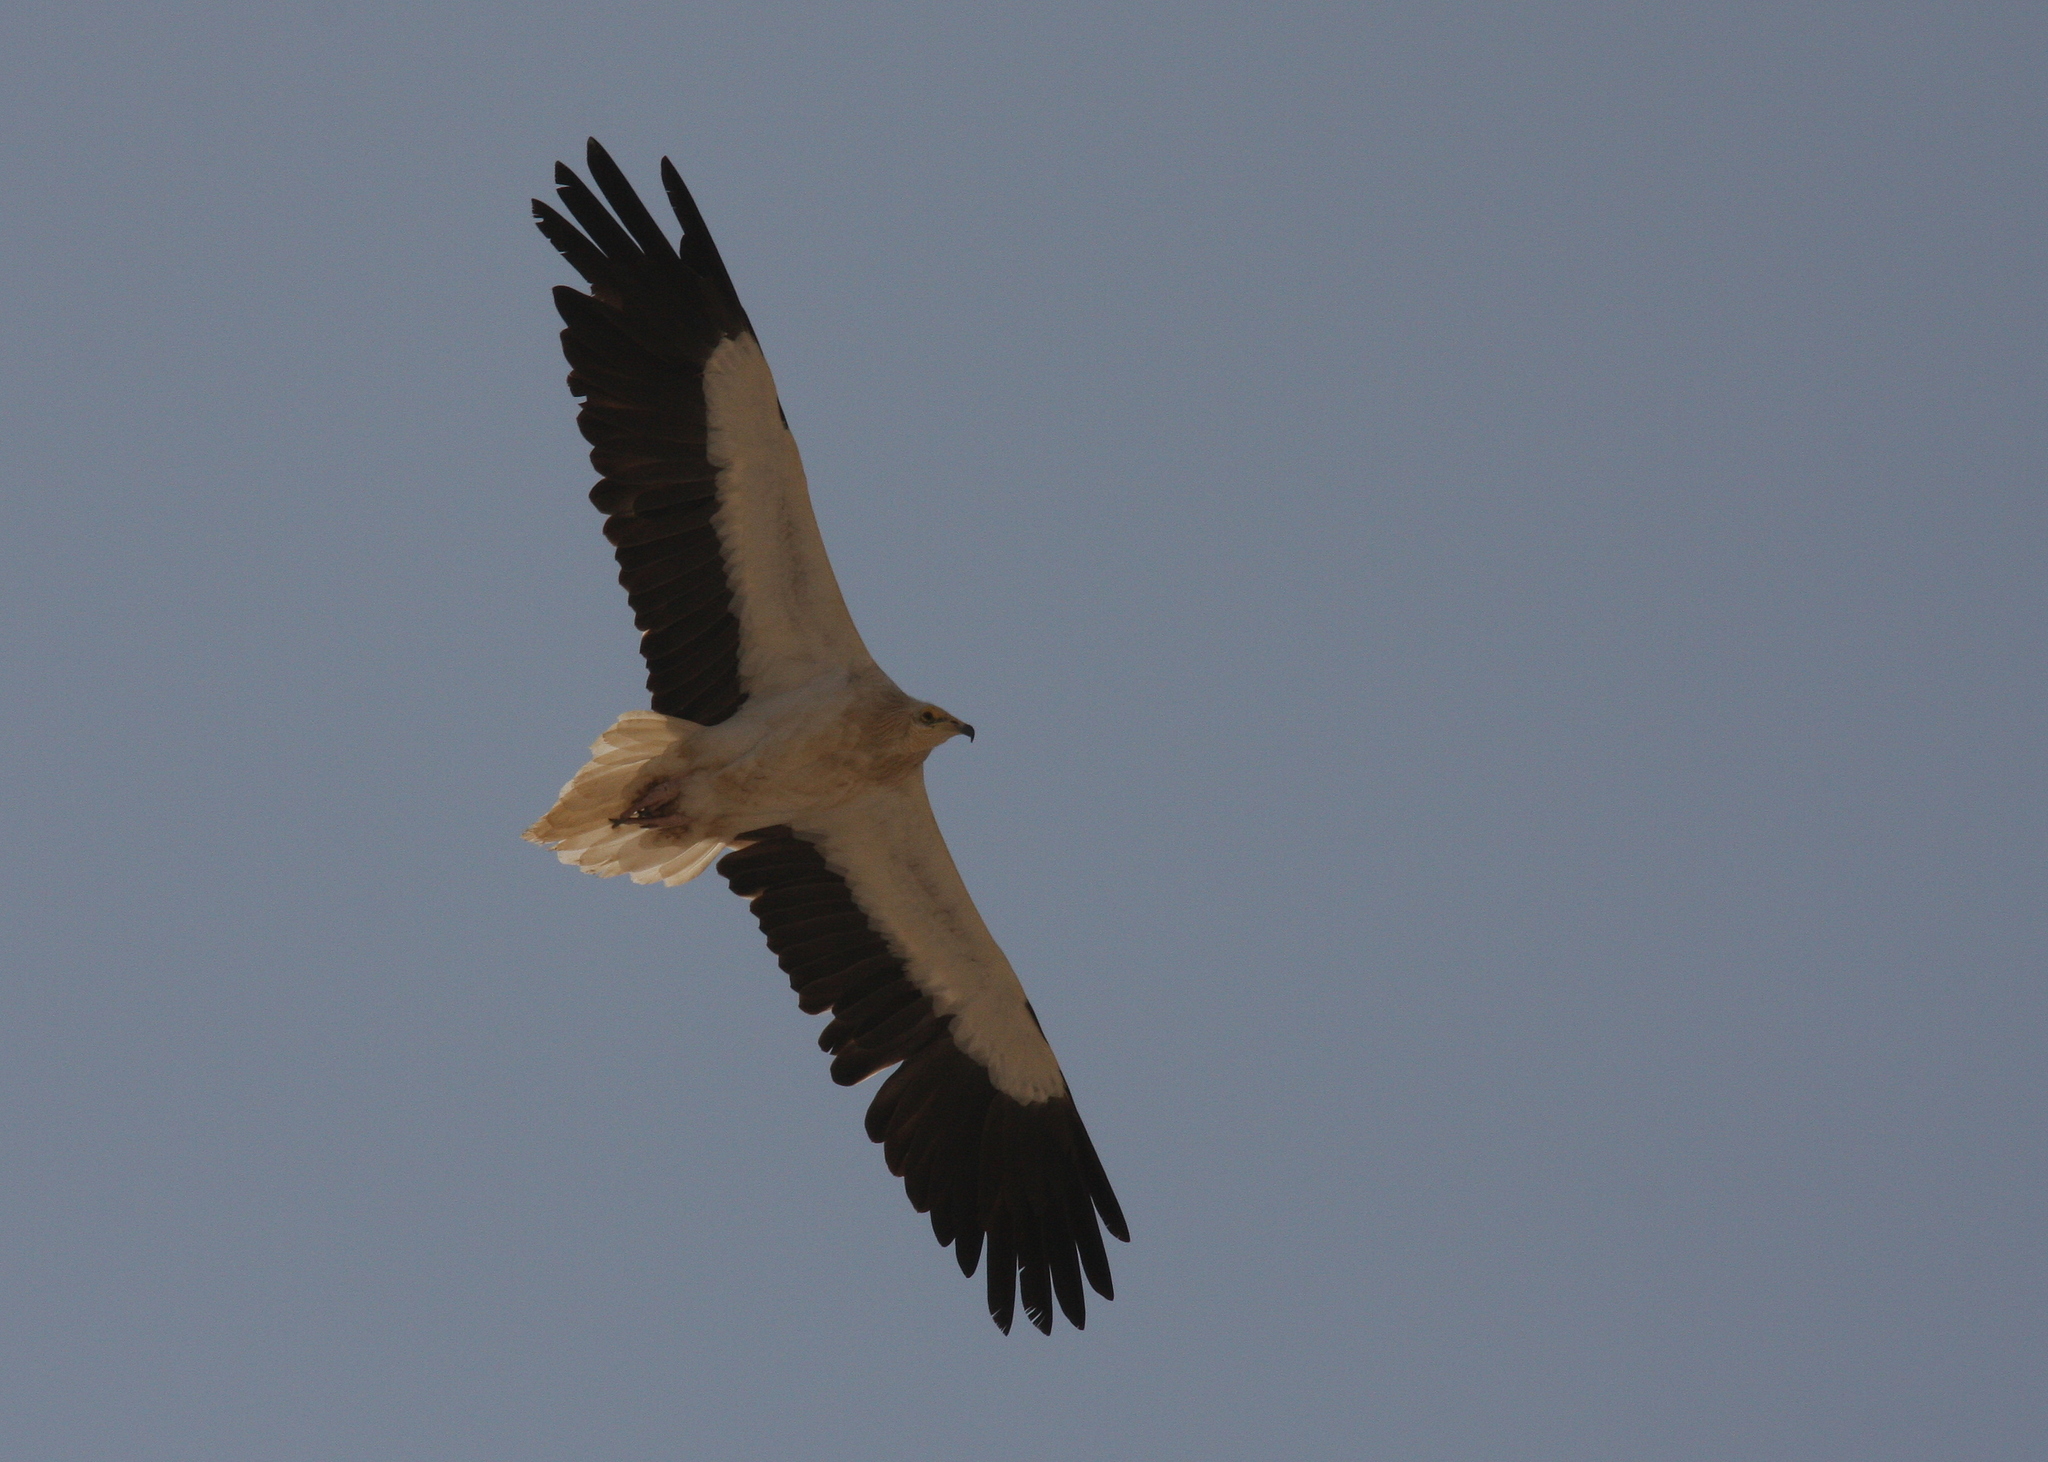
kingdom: Animalia
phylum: Chordata
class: Aves
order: Accipitriformes
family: Accipitridae
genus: Neophron
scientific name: Neophron percnopterus
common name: Egyptian vulture
